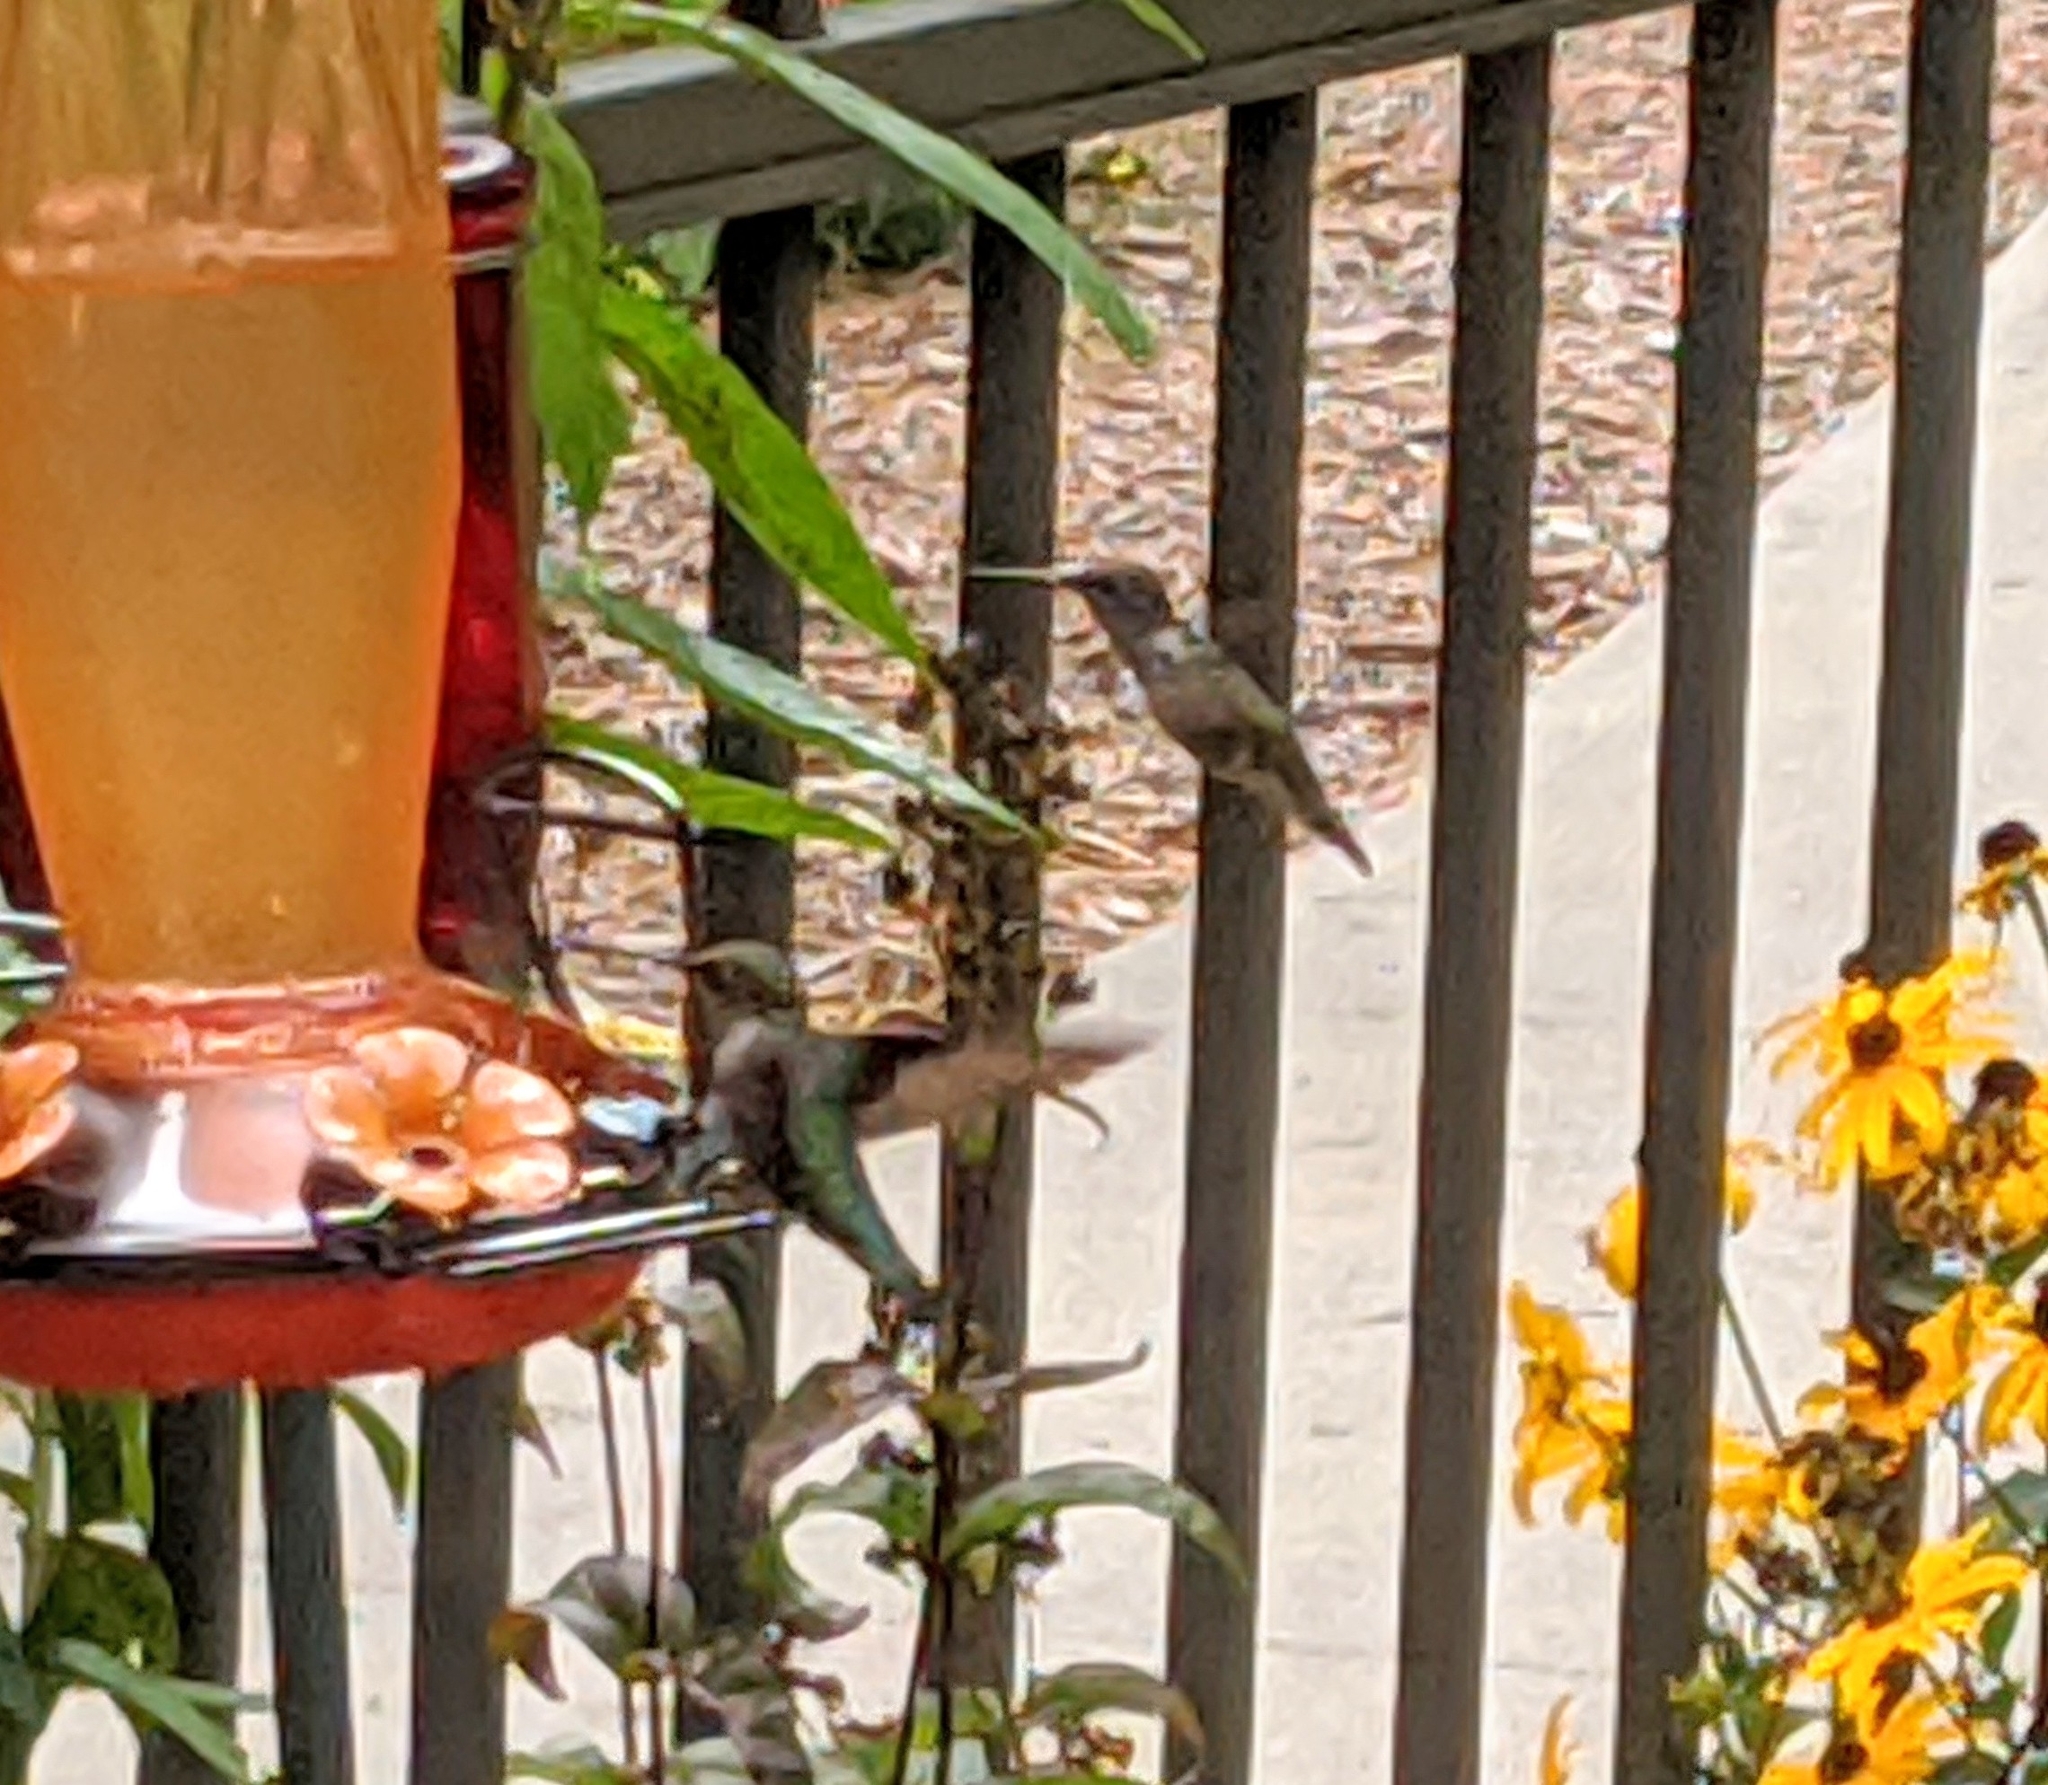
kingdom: Animalia
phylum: Chordata
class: Aves
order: Apodiformes
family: Trochilidae
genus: Archilochus
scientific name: Archilochus colubris
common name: Ruby-throated hummingbird
